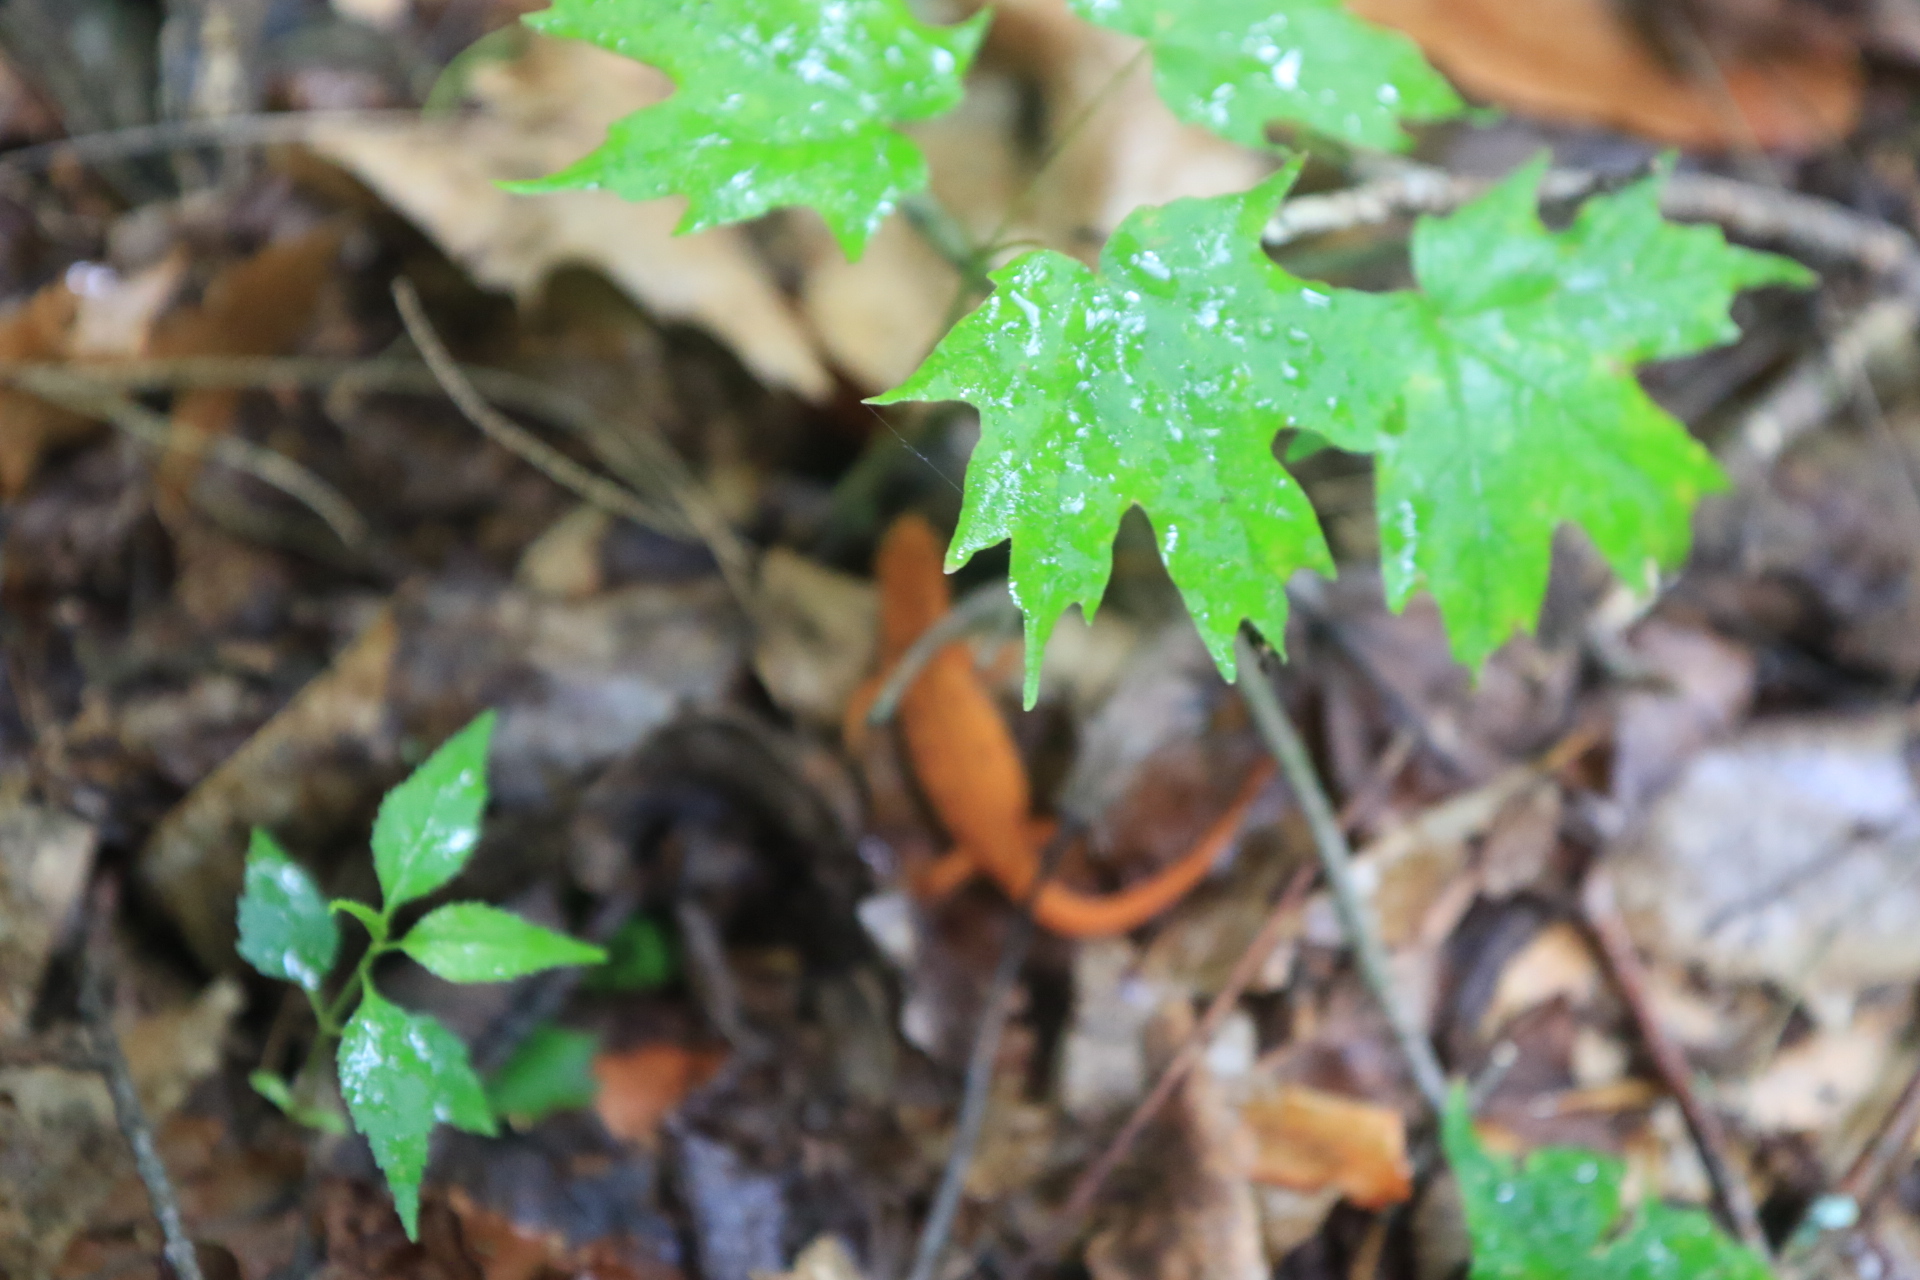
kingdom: Animalia
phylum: Chordata
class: Amphibia
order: Caudata
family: Salamandridae
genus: Notophthalmus
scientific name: Notophthalmus viridescens
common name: Eastern newt
